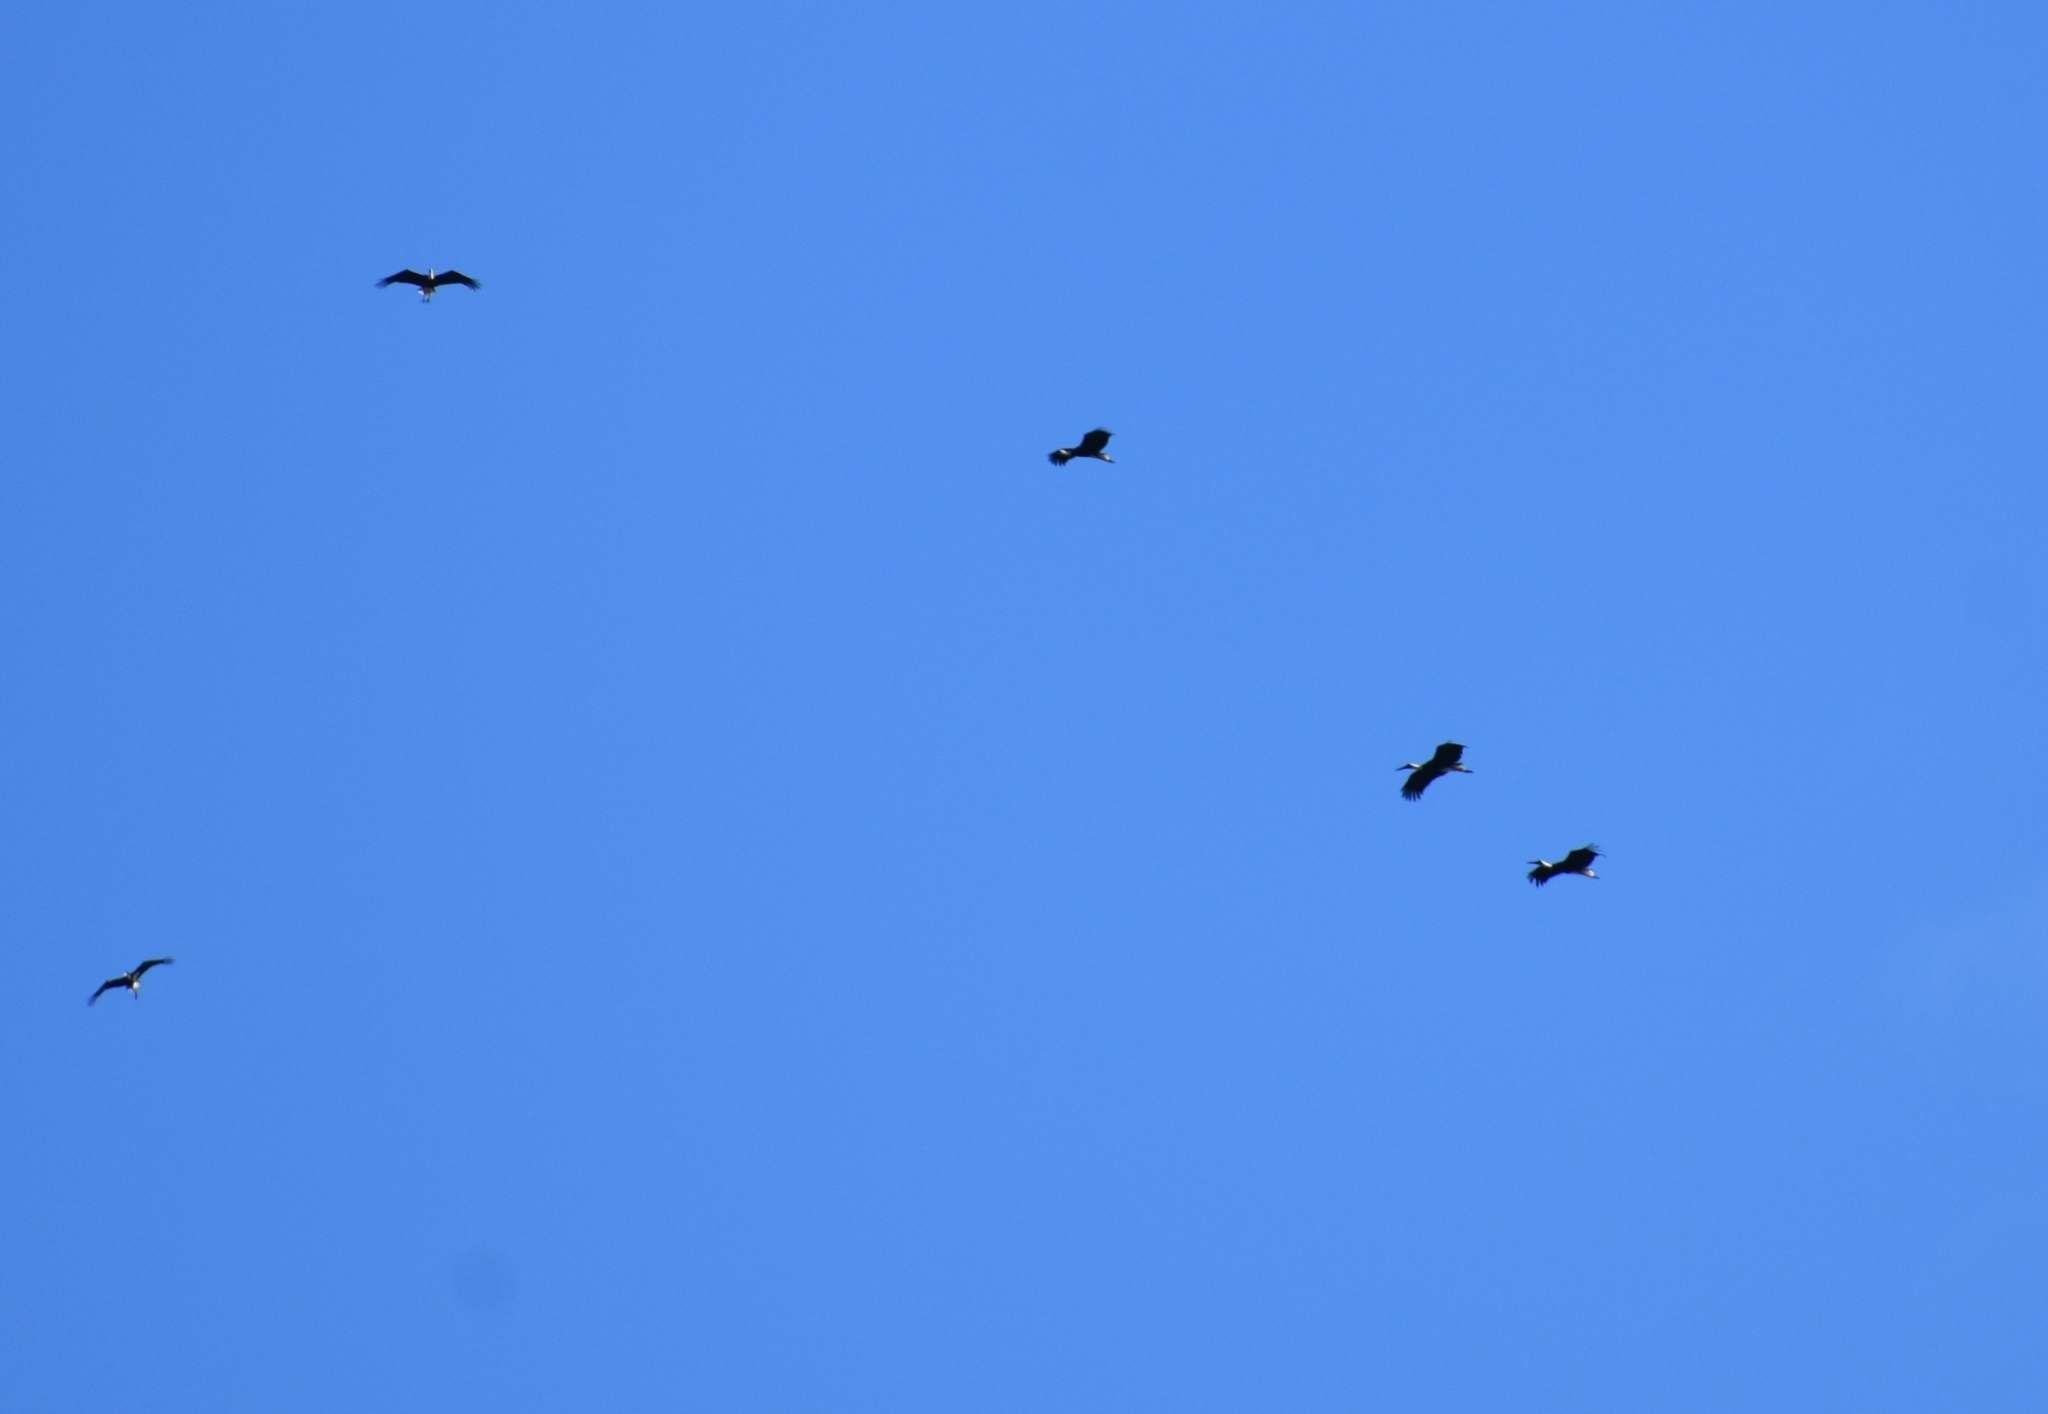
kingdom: Animalia
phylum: Chordata
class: Aves
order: Ciconiiformes
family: Ciconiidae
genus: Ciconia
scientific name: Ciconia microscelis
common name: African woollyneck
